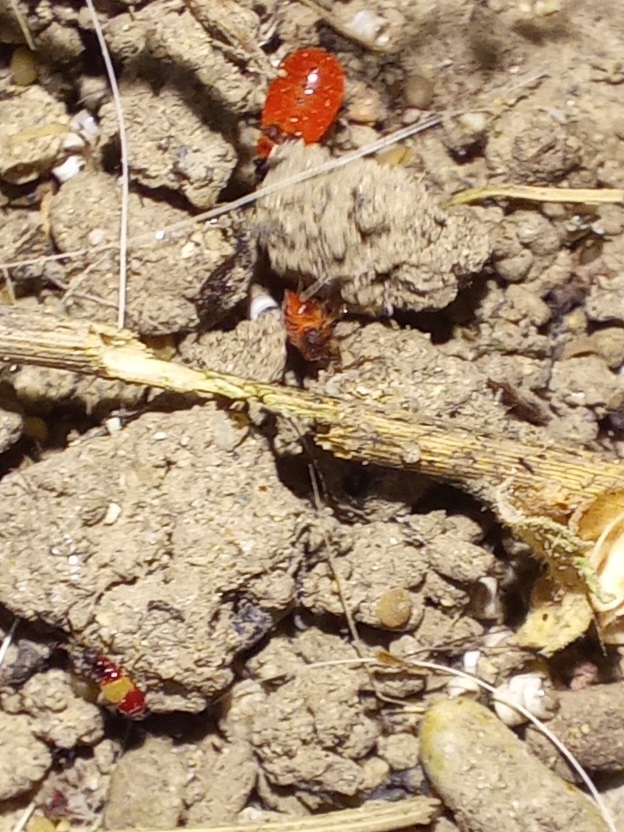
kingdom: Animalia
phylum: Arthropoda
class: Insecta
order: Hemiptera
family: Pyrrhocoridae
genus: Pyrrhocoris
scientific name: Pyrrhocoris apterus
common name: Firebug
